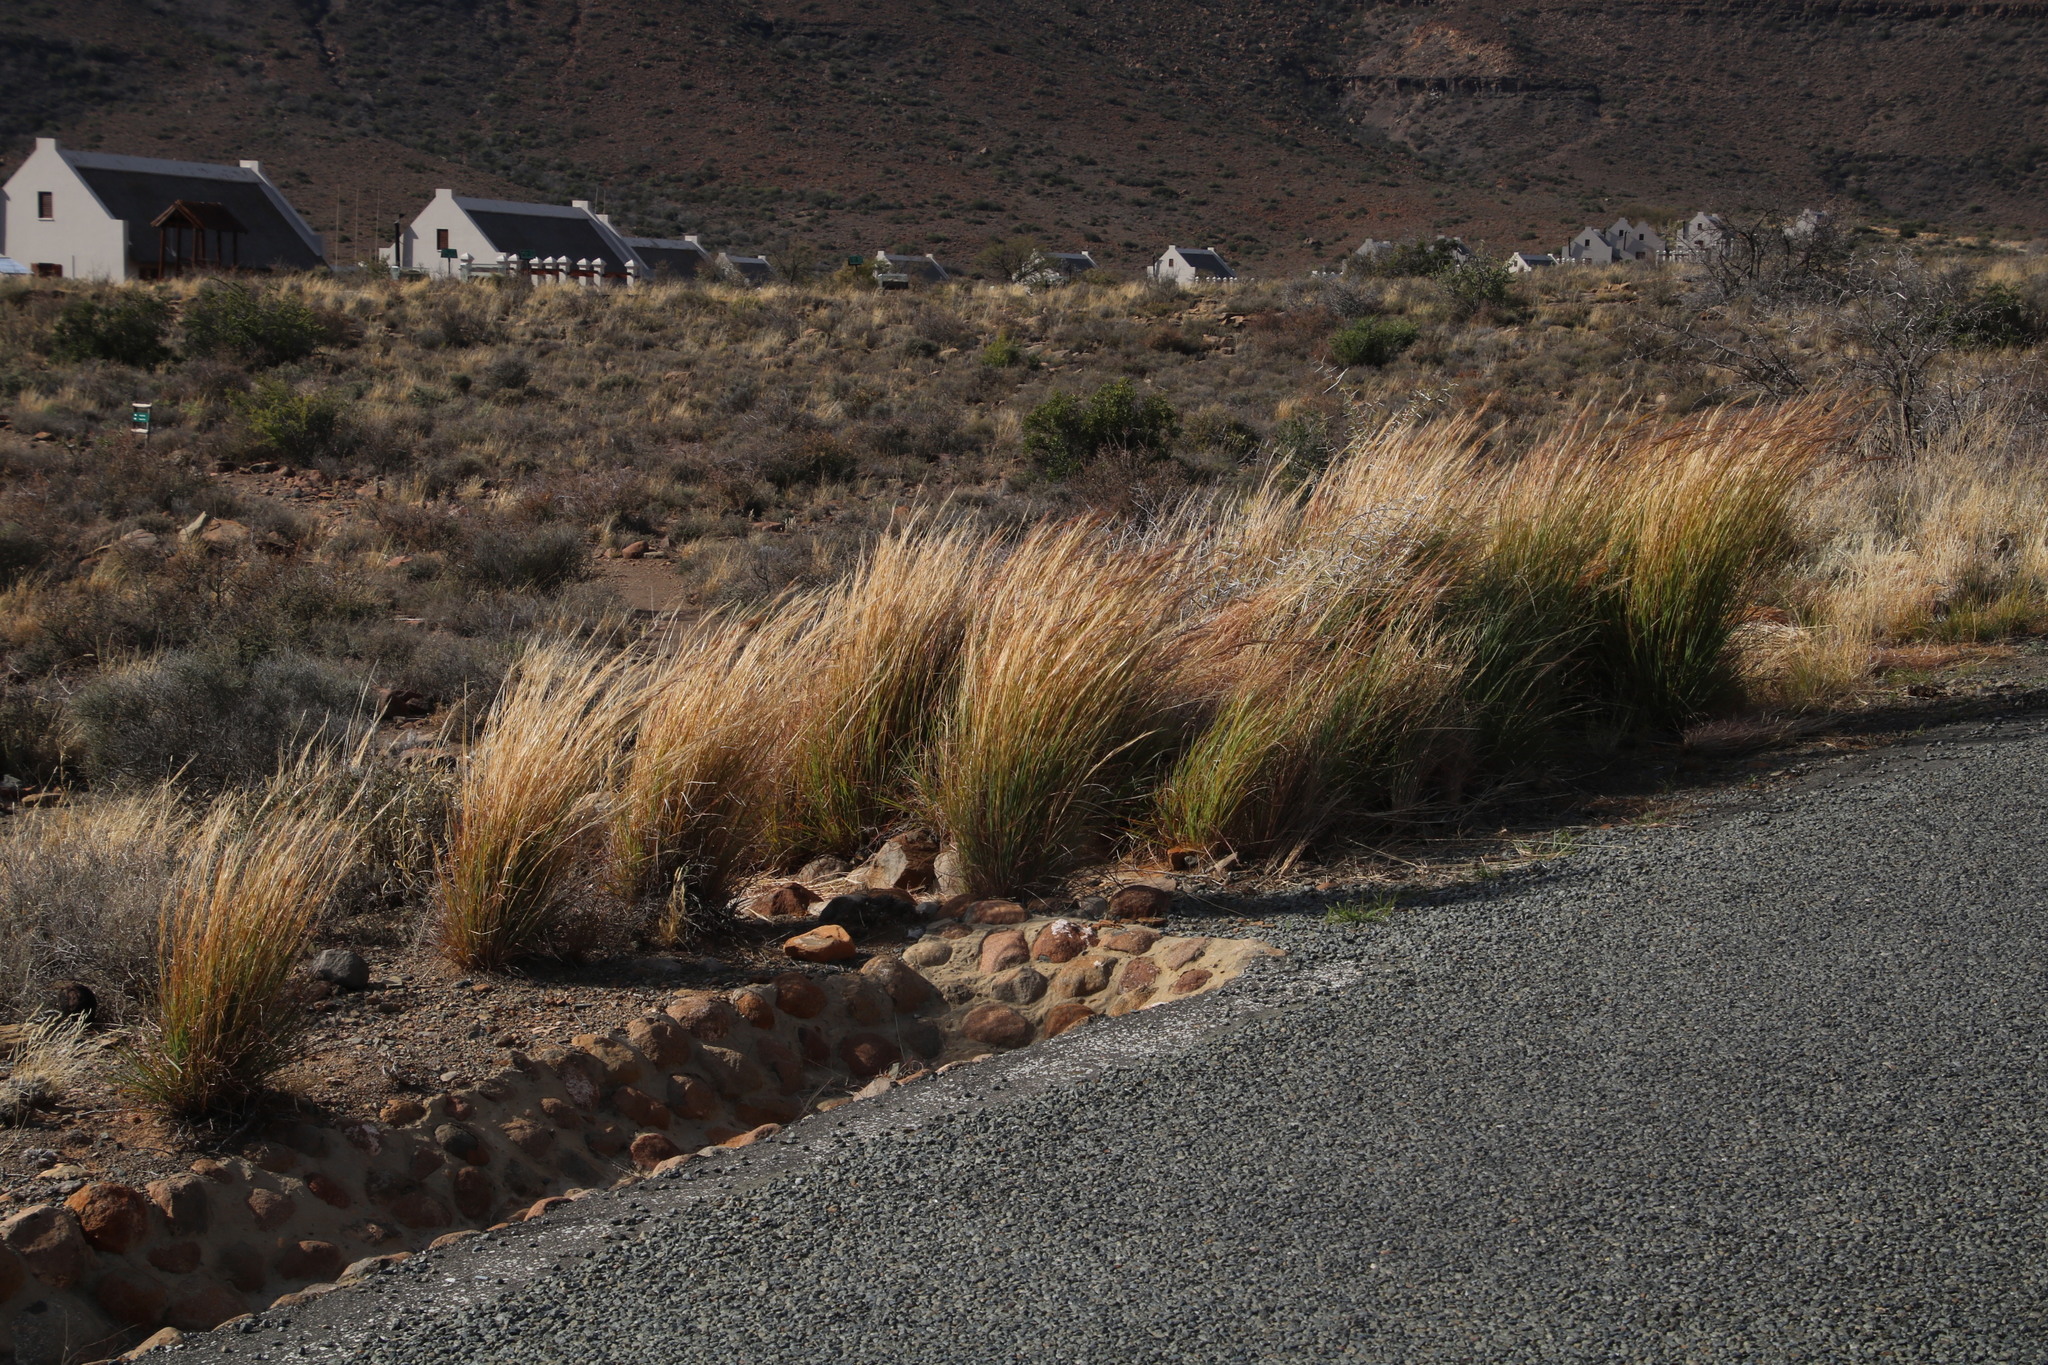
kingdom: Plantae
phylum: Tracheophyta
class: Liliopsida
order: Poales
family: Poaceae
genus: Hyparrhenia
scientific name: Hyparrhenia hirta
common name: Thatching grass
